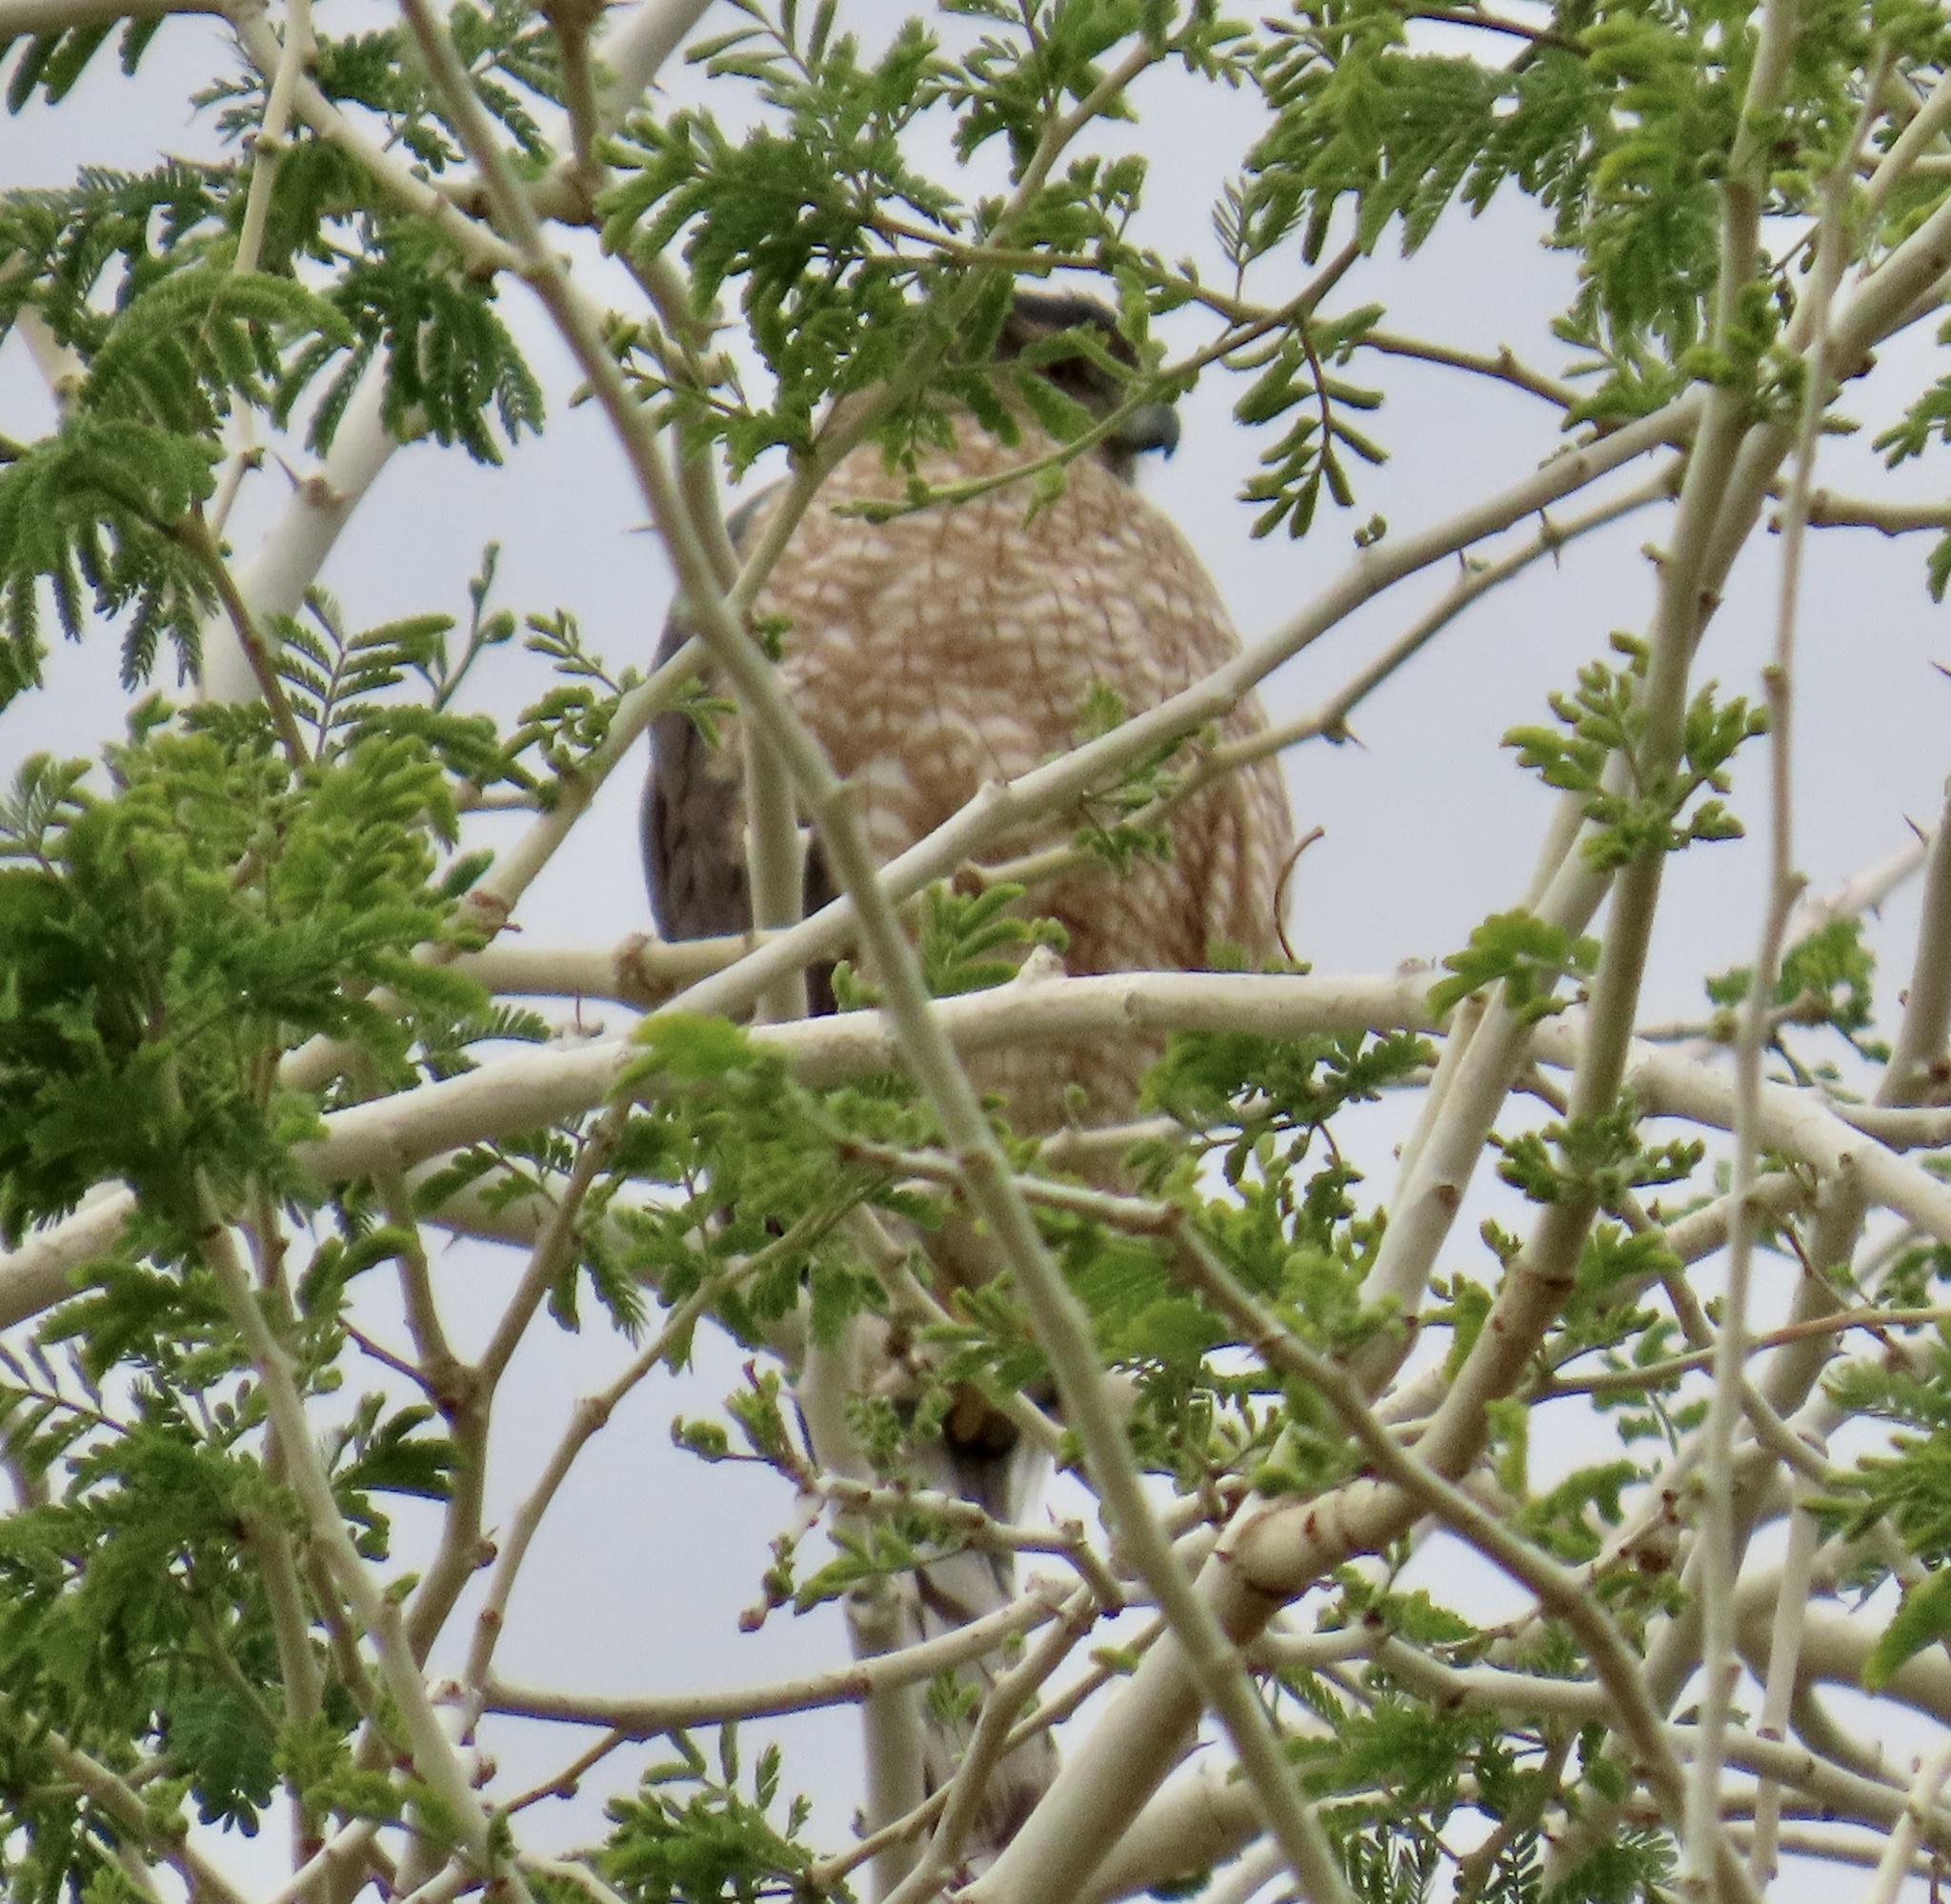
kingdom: Animalia
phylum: Chordata
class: Aves
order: Accipitriformes
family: Accipitridae
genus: Accipiter
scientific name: Accipiter cooperii
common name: Cooper's hawk
